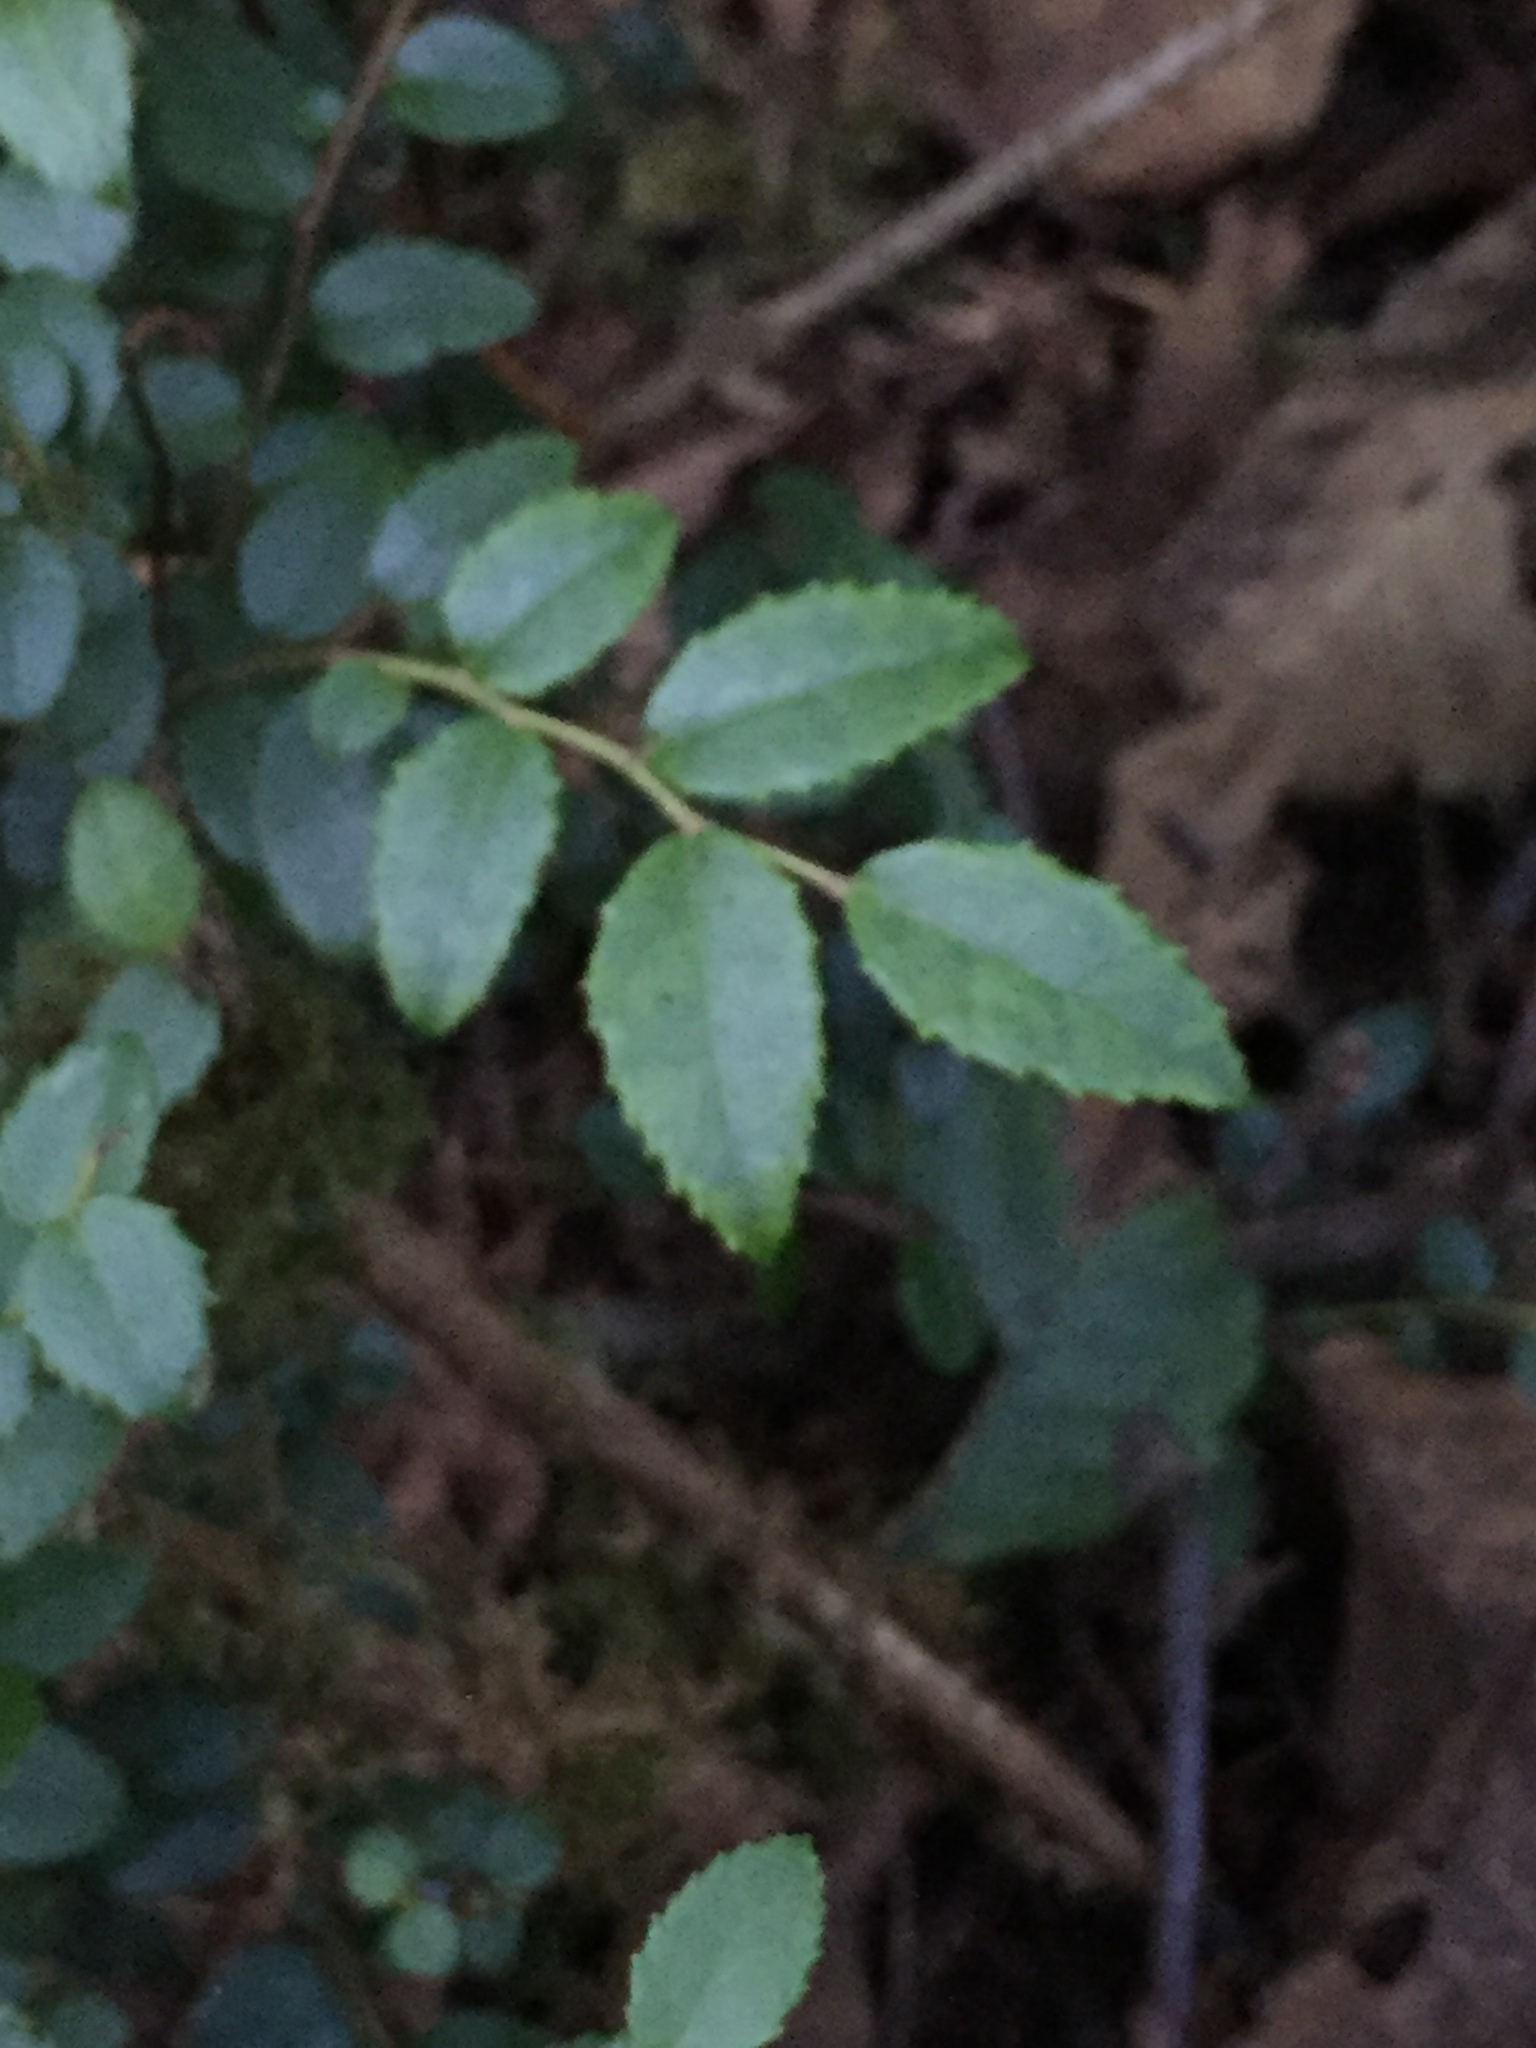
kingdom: Plantae
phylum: Tracheophyta
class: Magnoliopsida
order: Ericales
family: Ericaceae
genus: Vaccinium
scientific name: Vaccinium ovatum
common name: California-huckleberry
